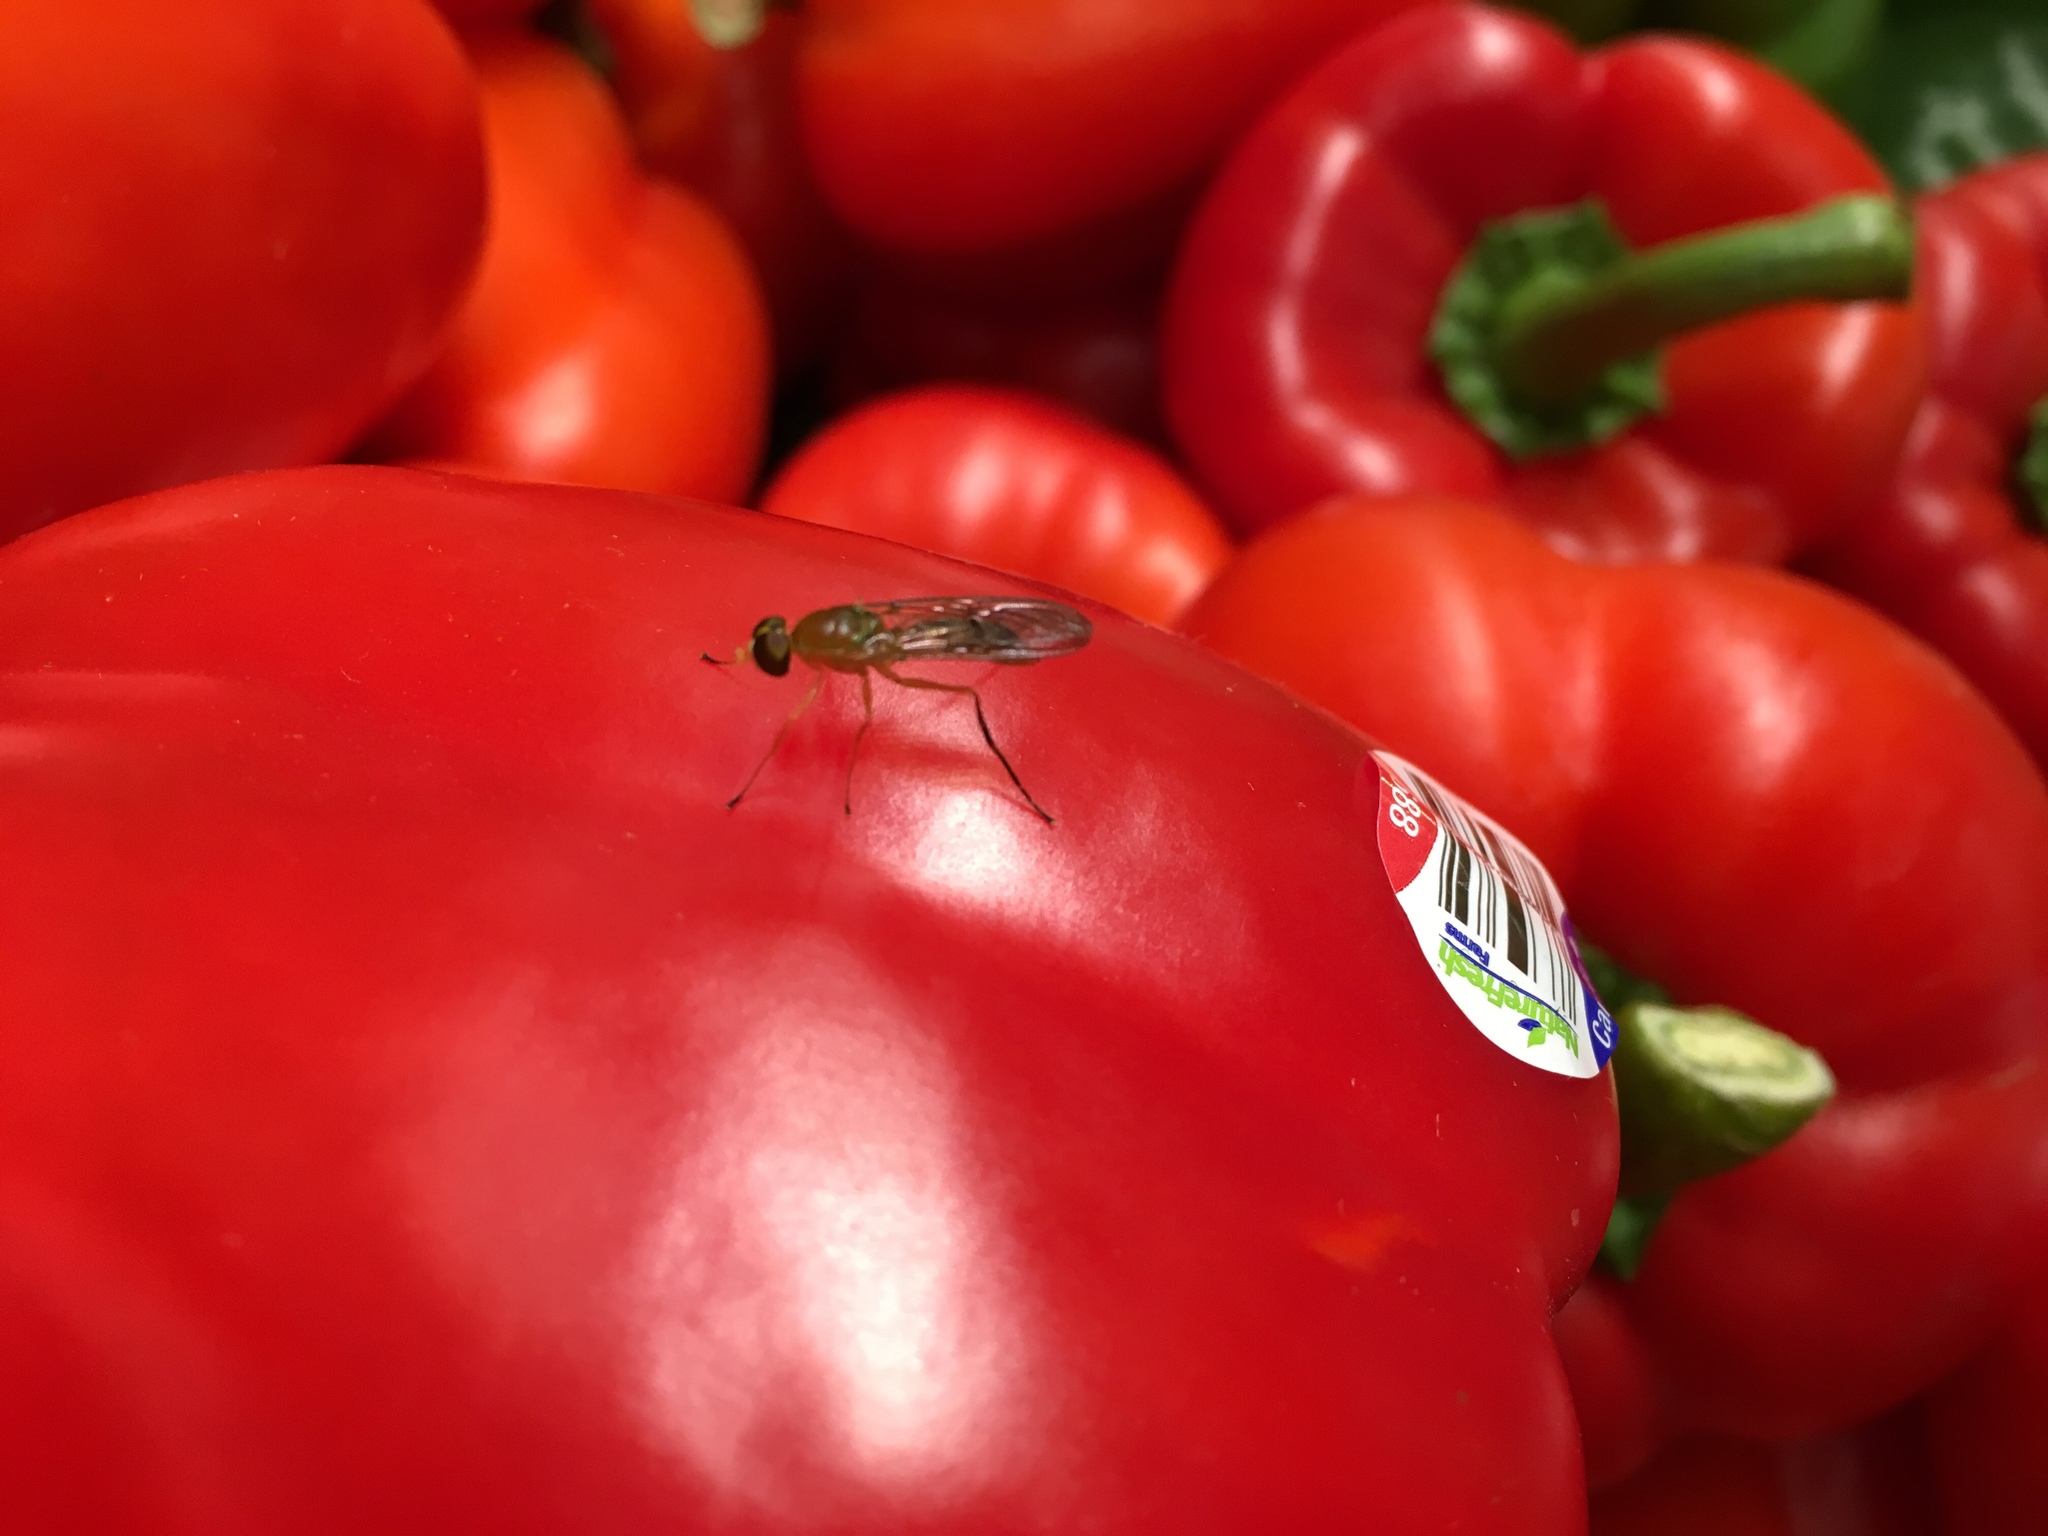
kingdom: Animalia
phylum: Arthropoda
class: Insecta
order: Diptera
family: Stratiomyidae
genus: Ptecticus
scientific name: Ptecticus trivittatus
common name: Compost fly
